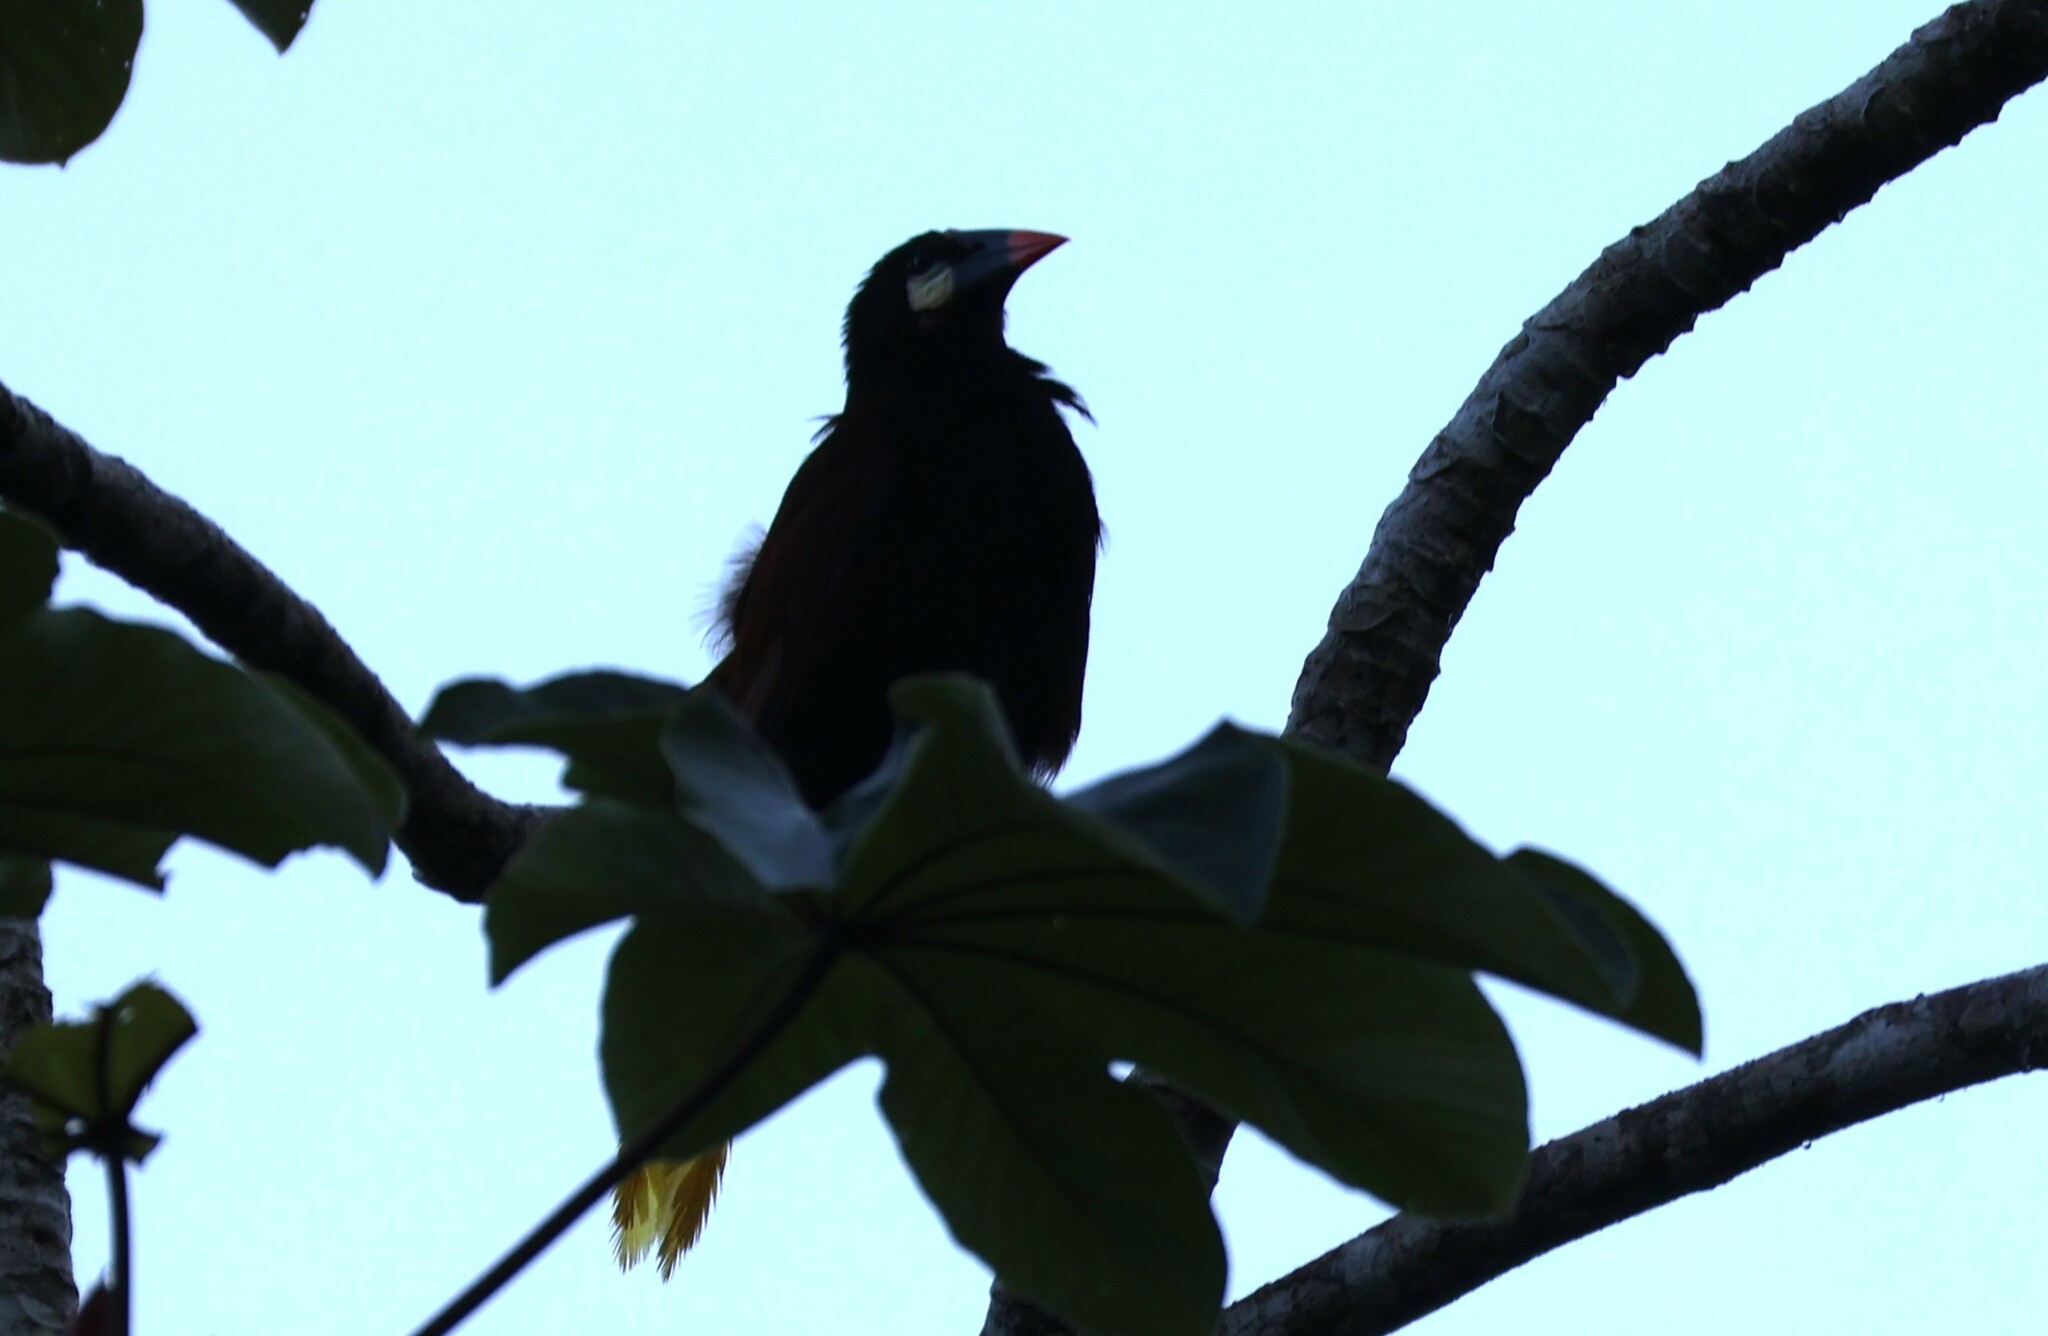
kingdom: Animalia
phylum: Chordata
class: Aves
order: Passeriformes
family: Icteridae
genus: Psarocolius
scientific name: Psarocolius montezuma
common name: Montezuma oropendola
